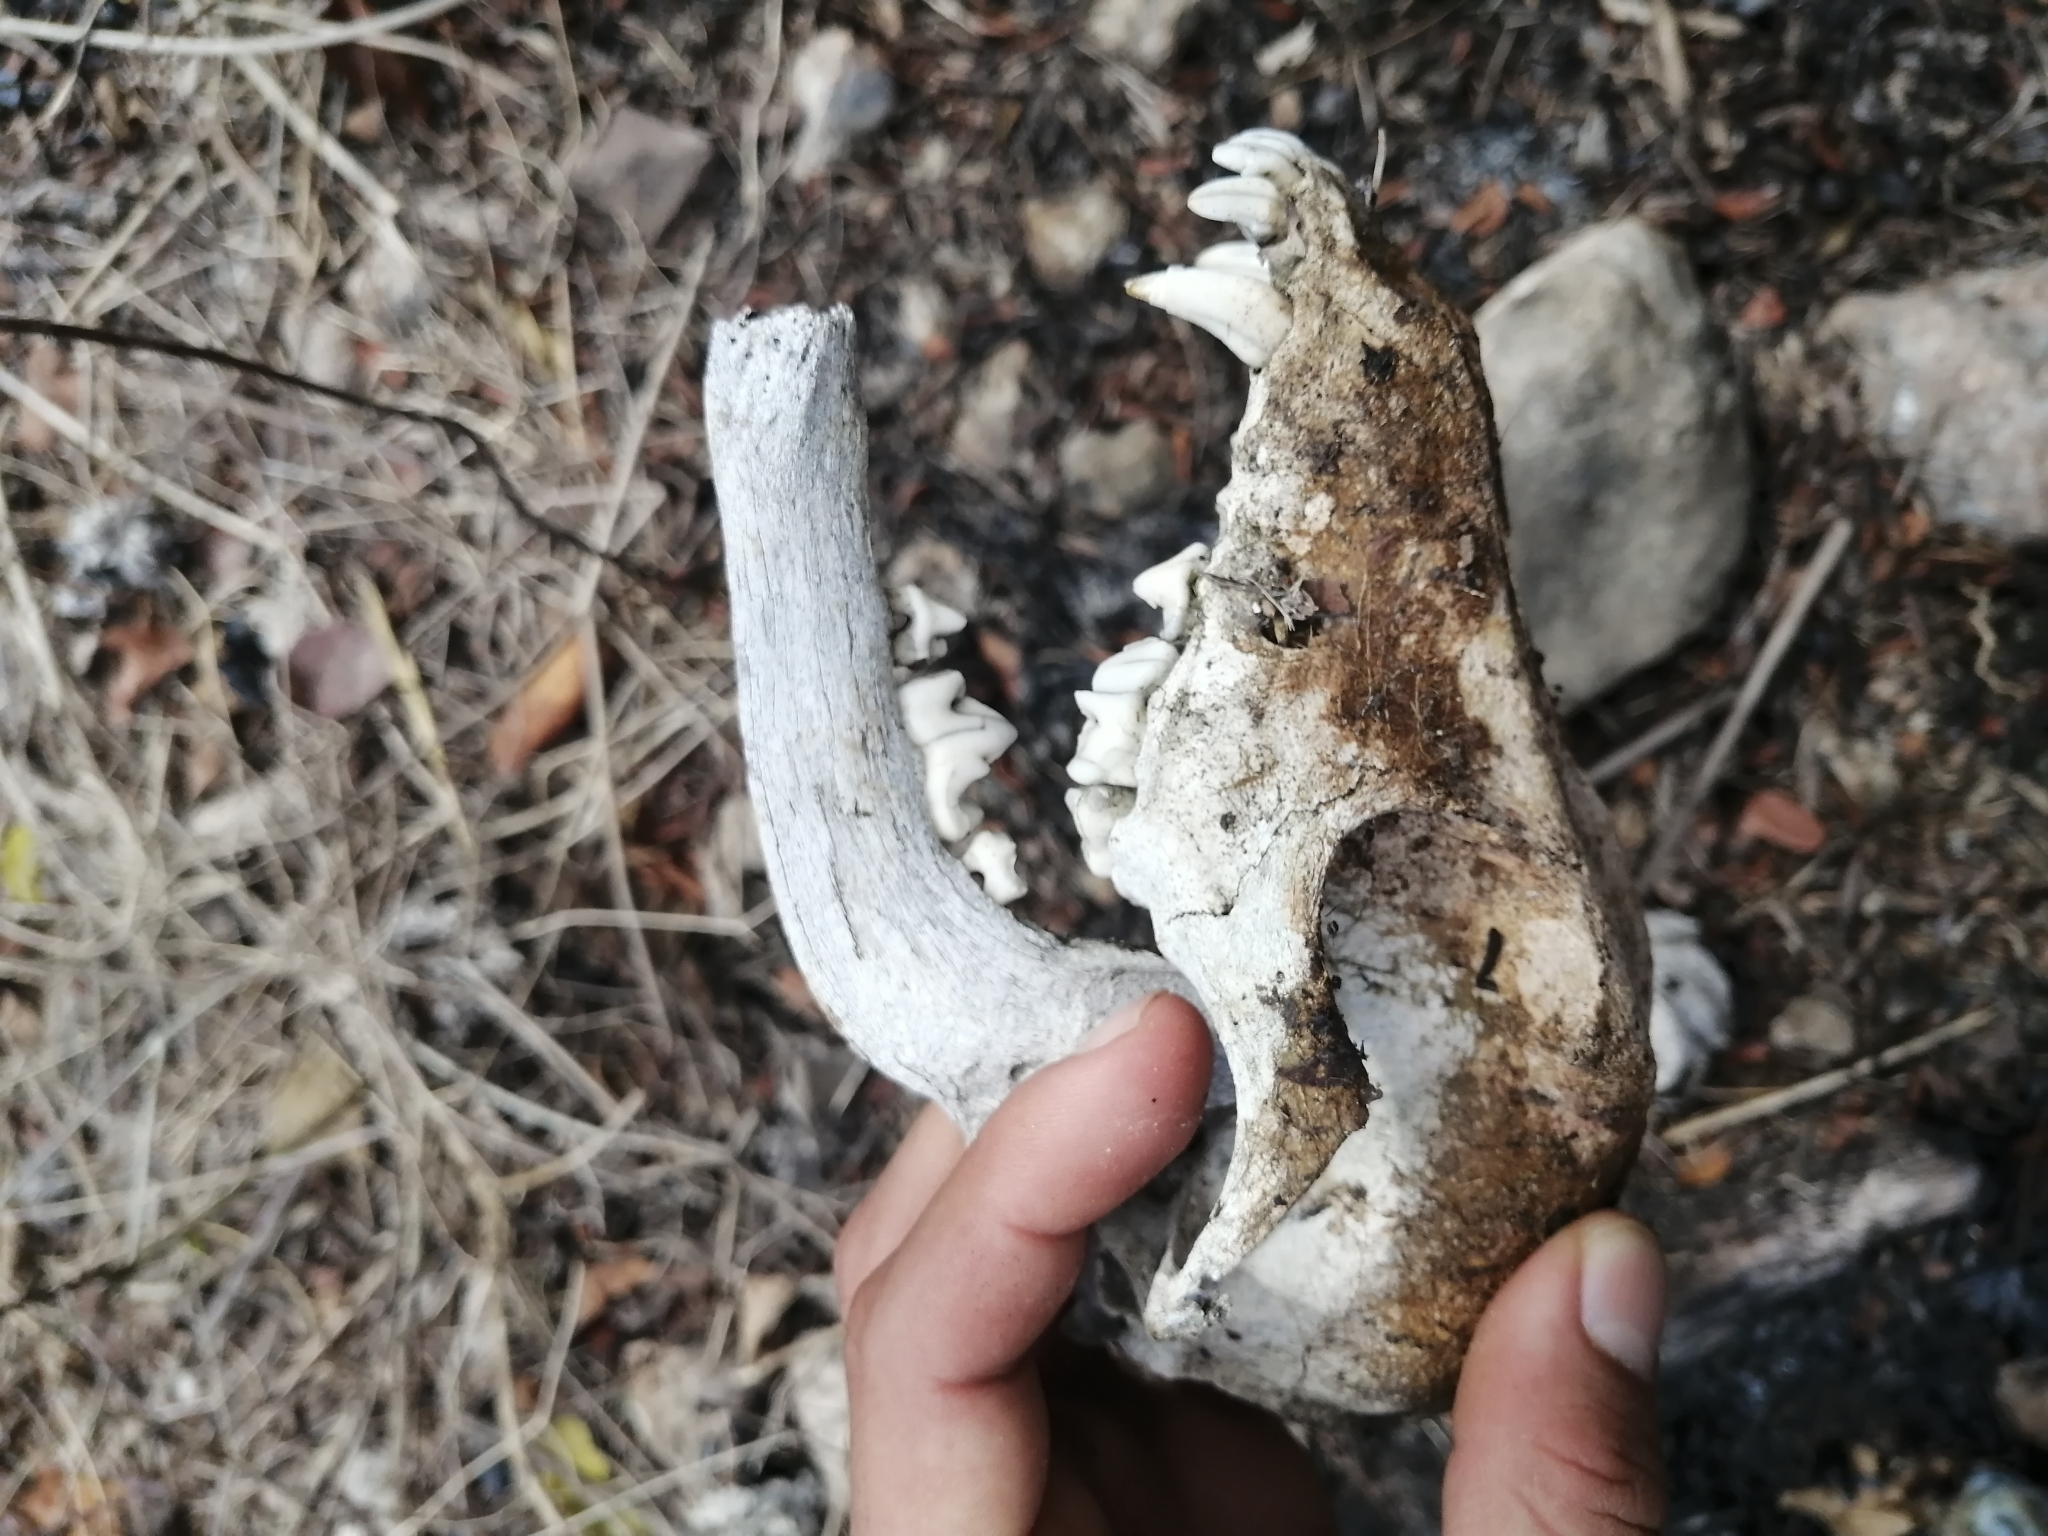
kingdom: Animalia
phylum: Chordata
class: Mammalia
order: Carnivora
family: Canidae
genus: Canis
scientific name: Canis lupus
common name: Gray wolf
